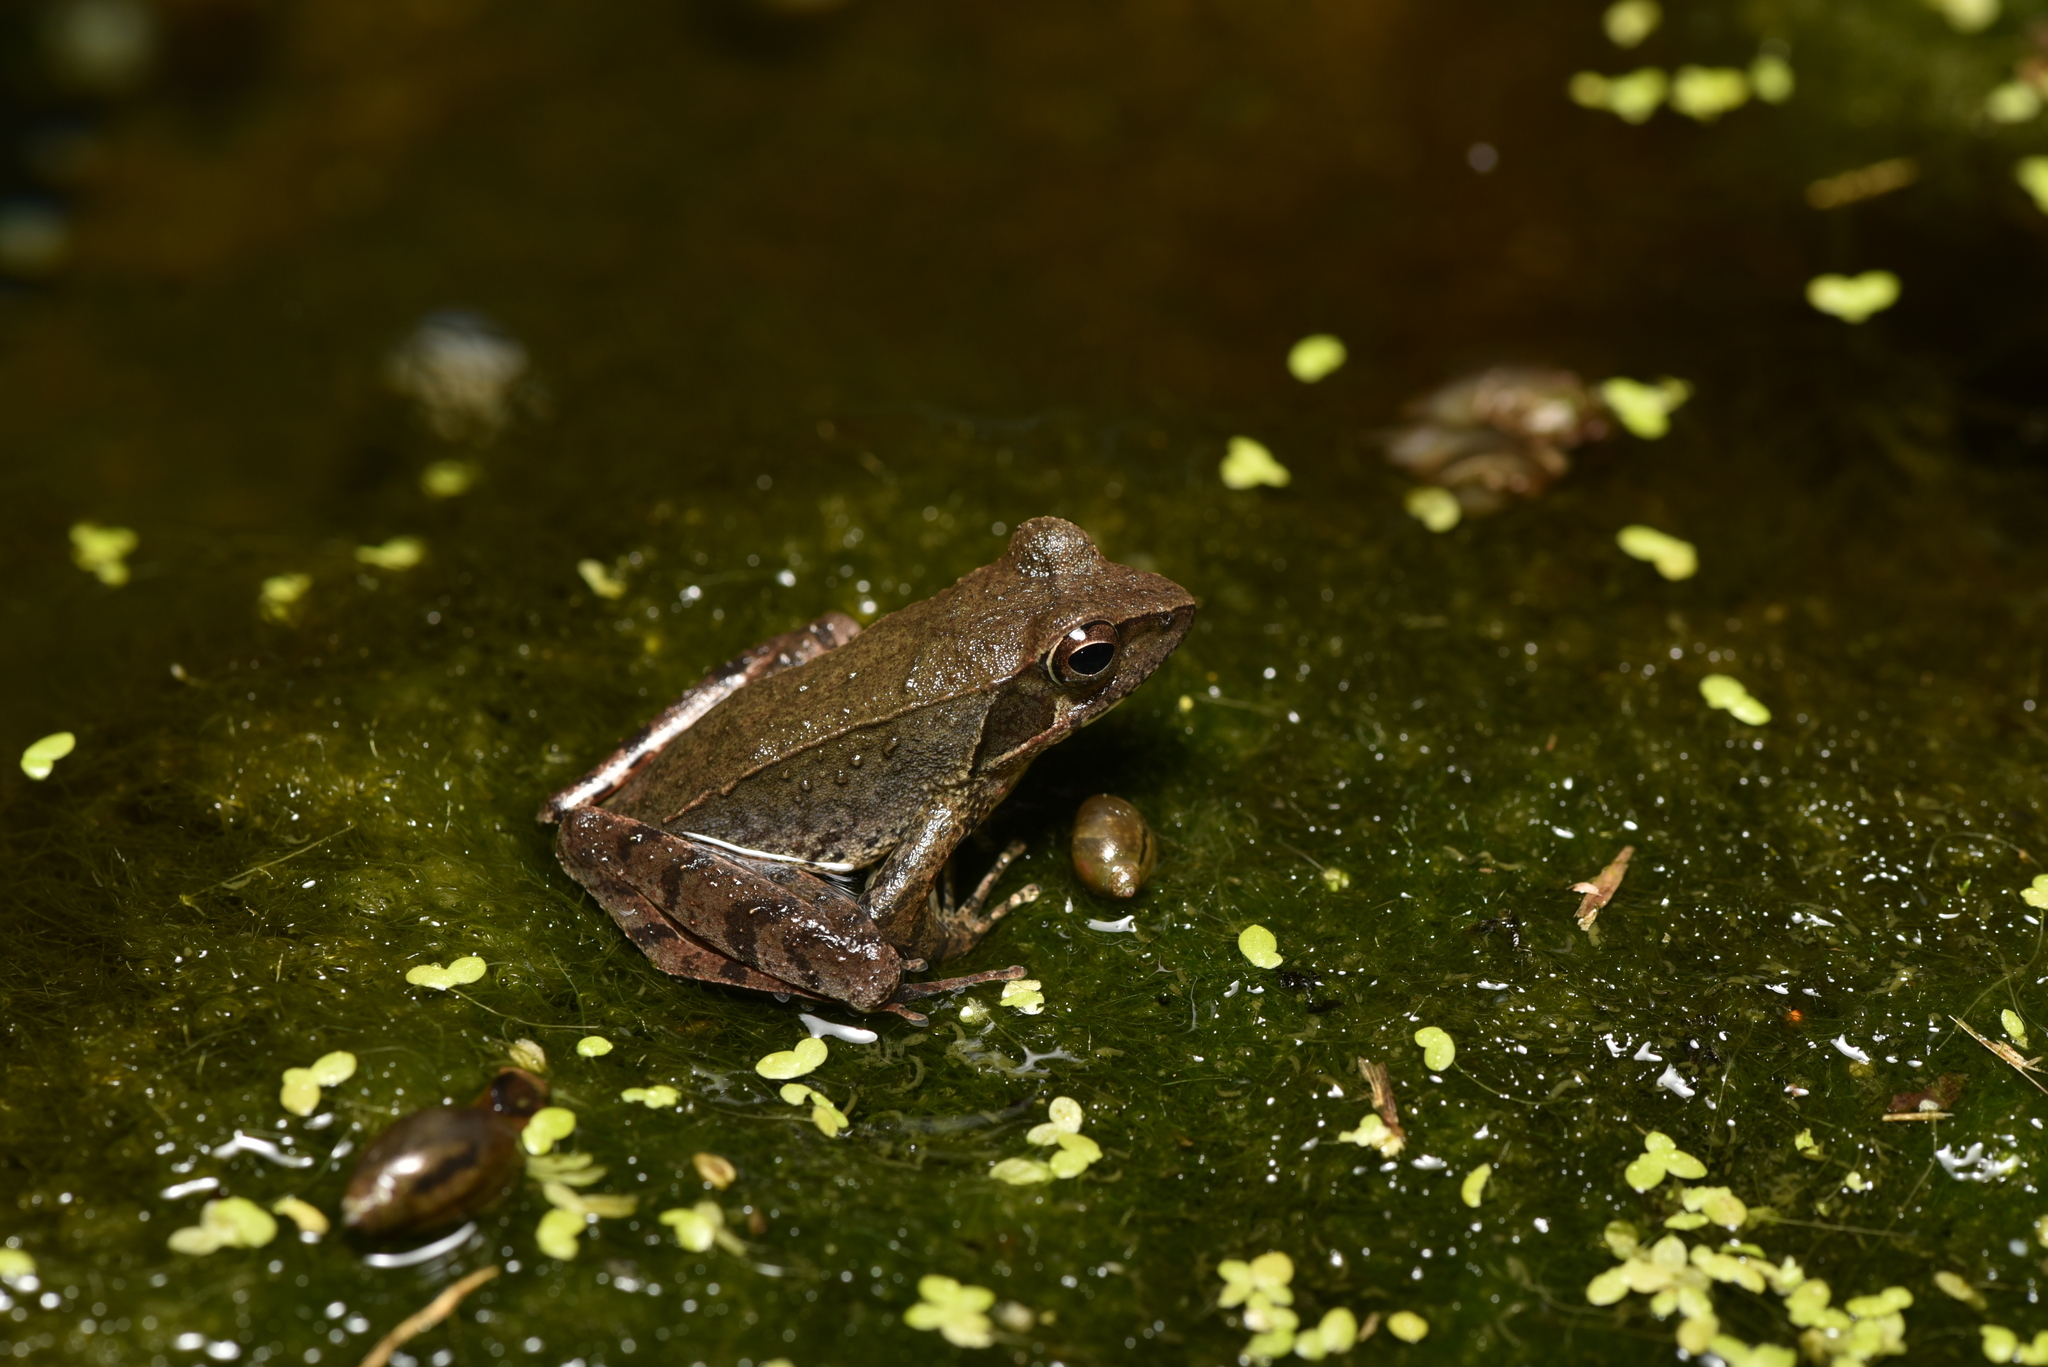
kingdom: Animalia
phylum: Chordata
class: Amphibia
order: Anura
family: Ranidae
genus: Rana
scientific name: Rana sauteri
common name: Kanshirei village frog
